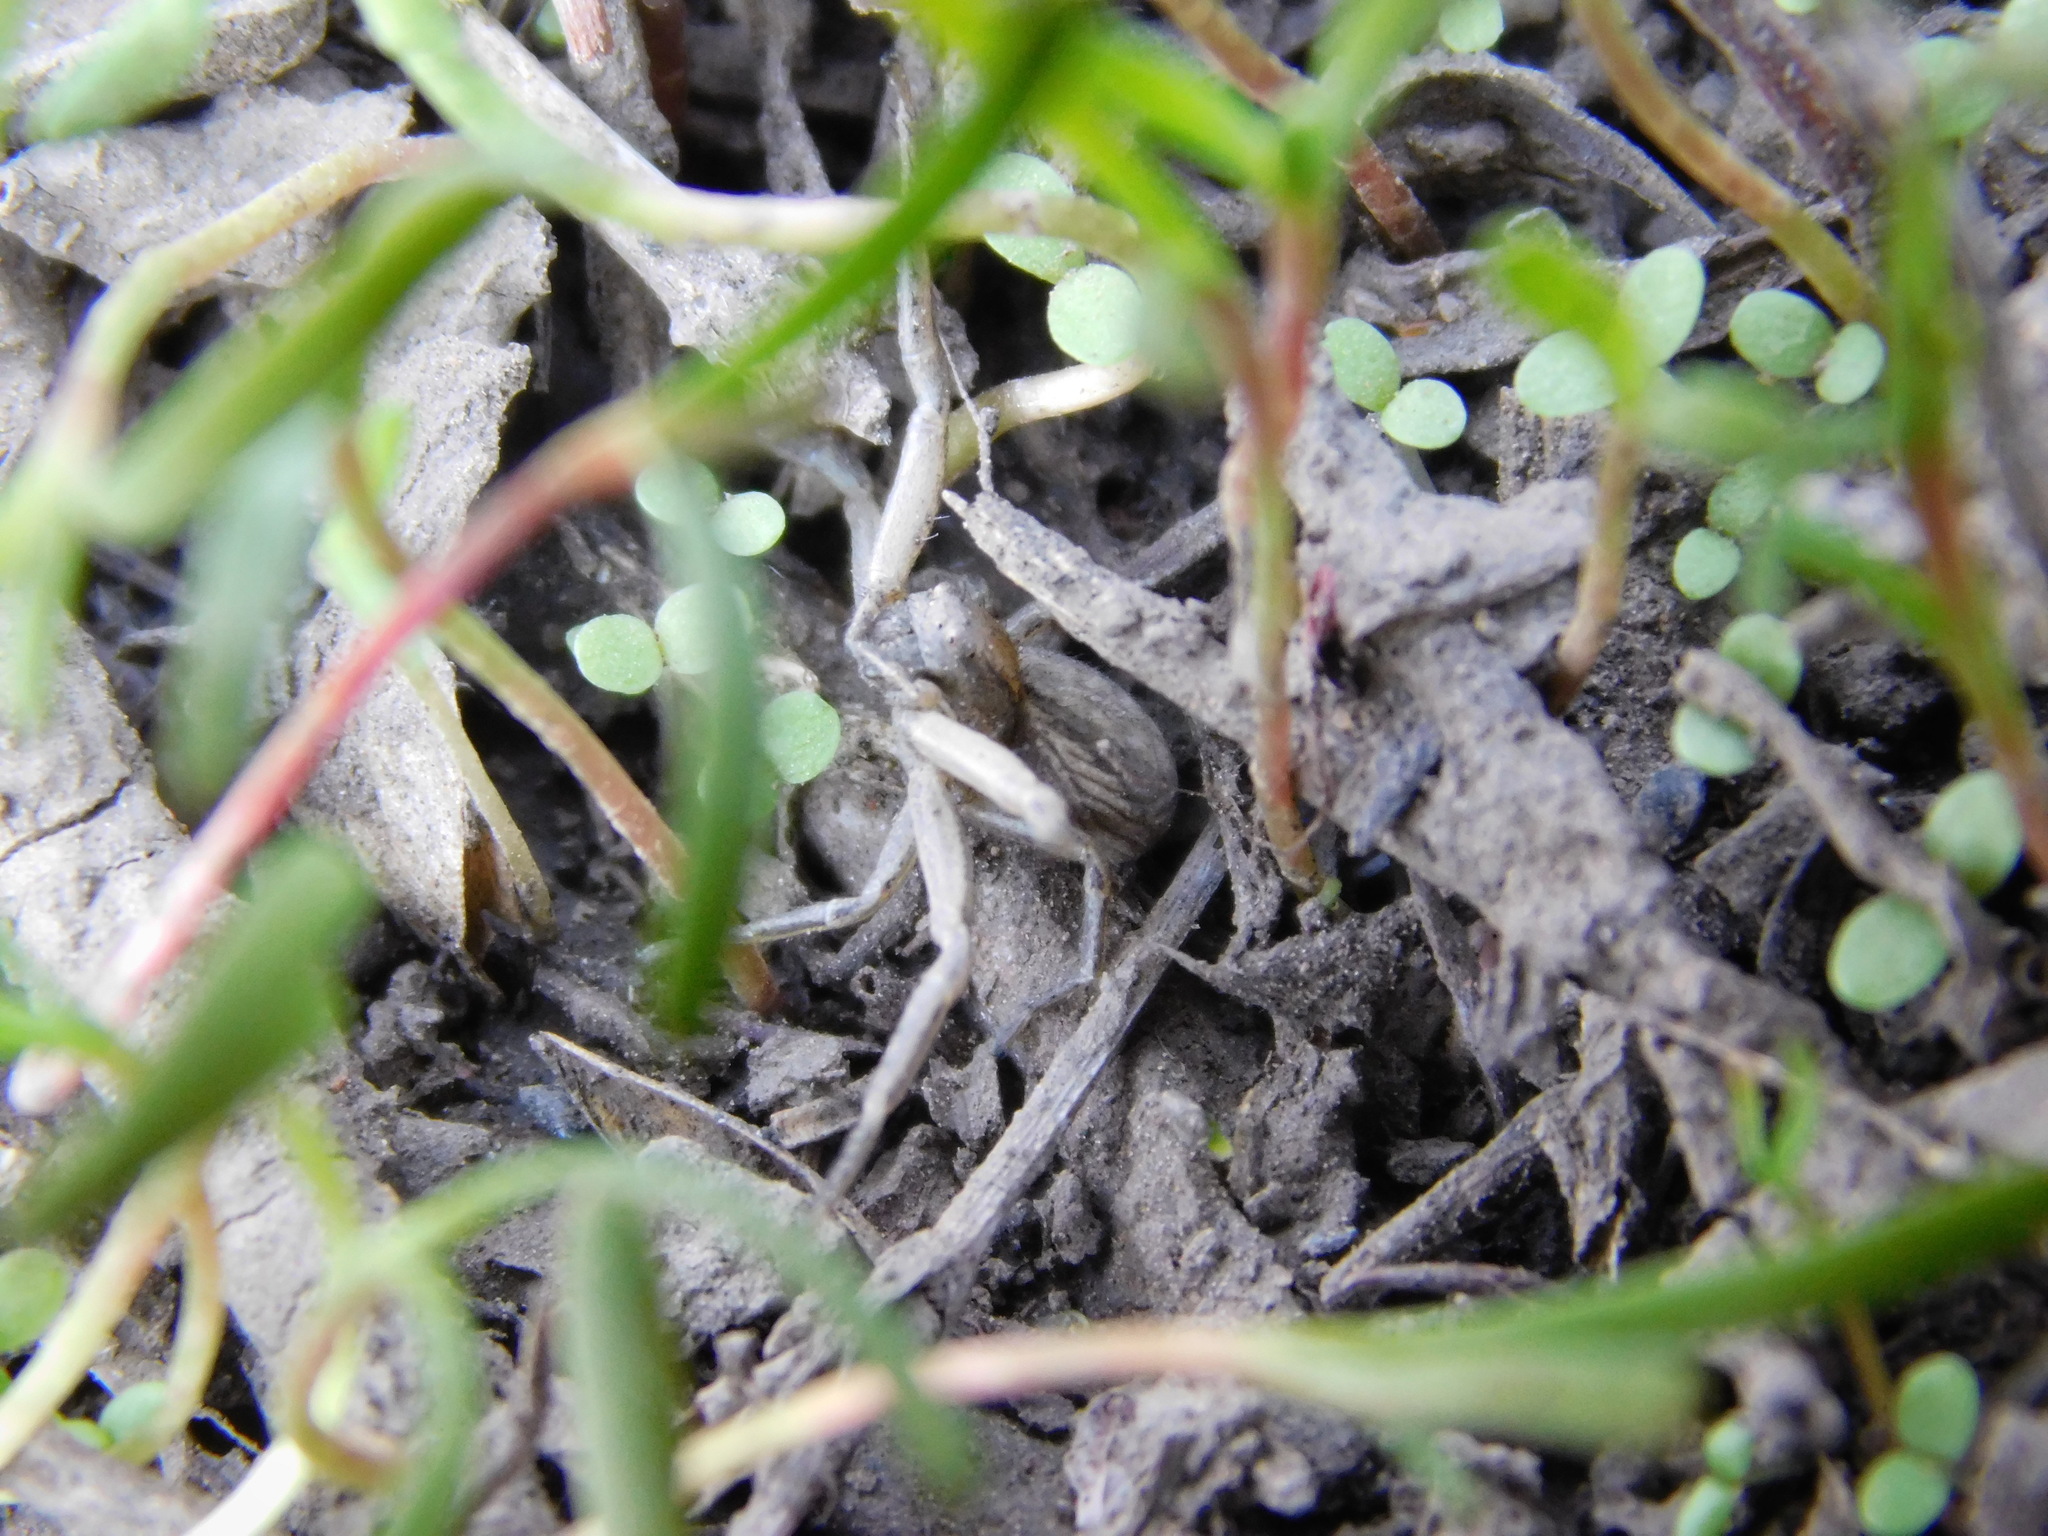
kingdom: Animalia
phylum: Arthropoda
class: Arachnida
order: Araneae
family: Thomisidae
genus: Spiracme
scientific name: Spiracme striatipes
